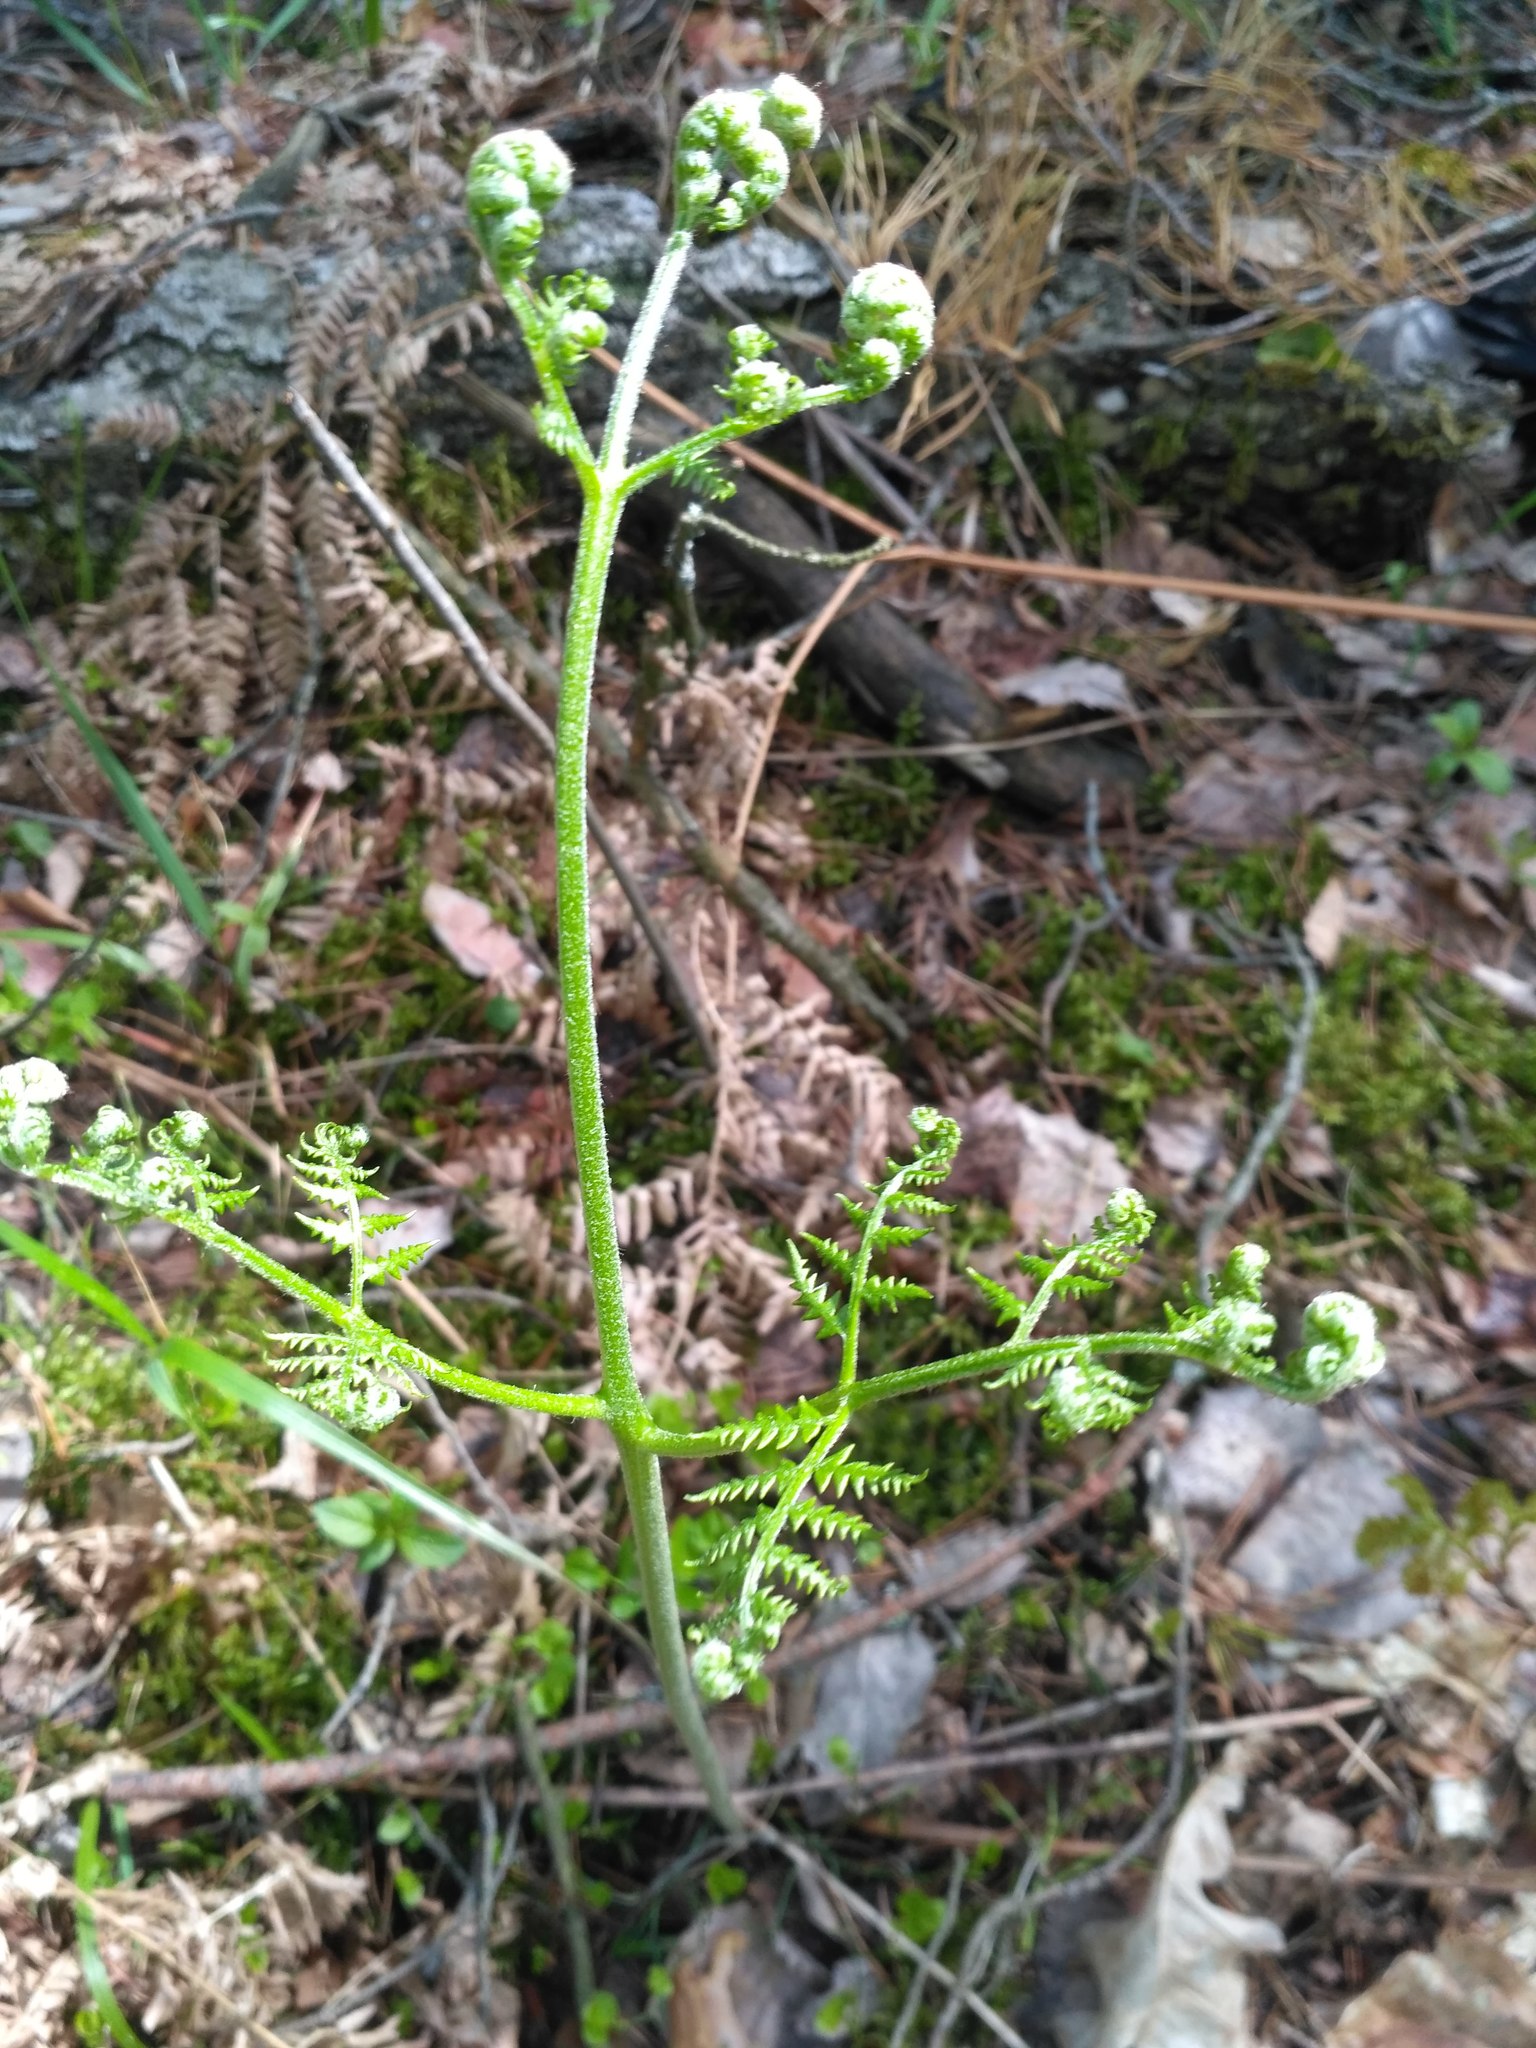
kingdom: Plantae
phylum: Tracheophyta
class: Polypodiopsida
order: Polypodiales
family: Dennstaedtiaceae
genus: Pteridium
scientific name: Pteridium aquilinum
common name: Bracken
